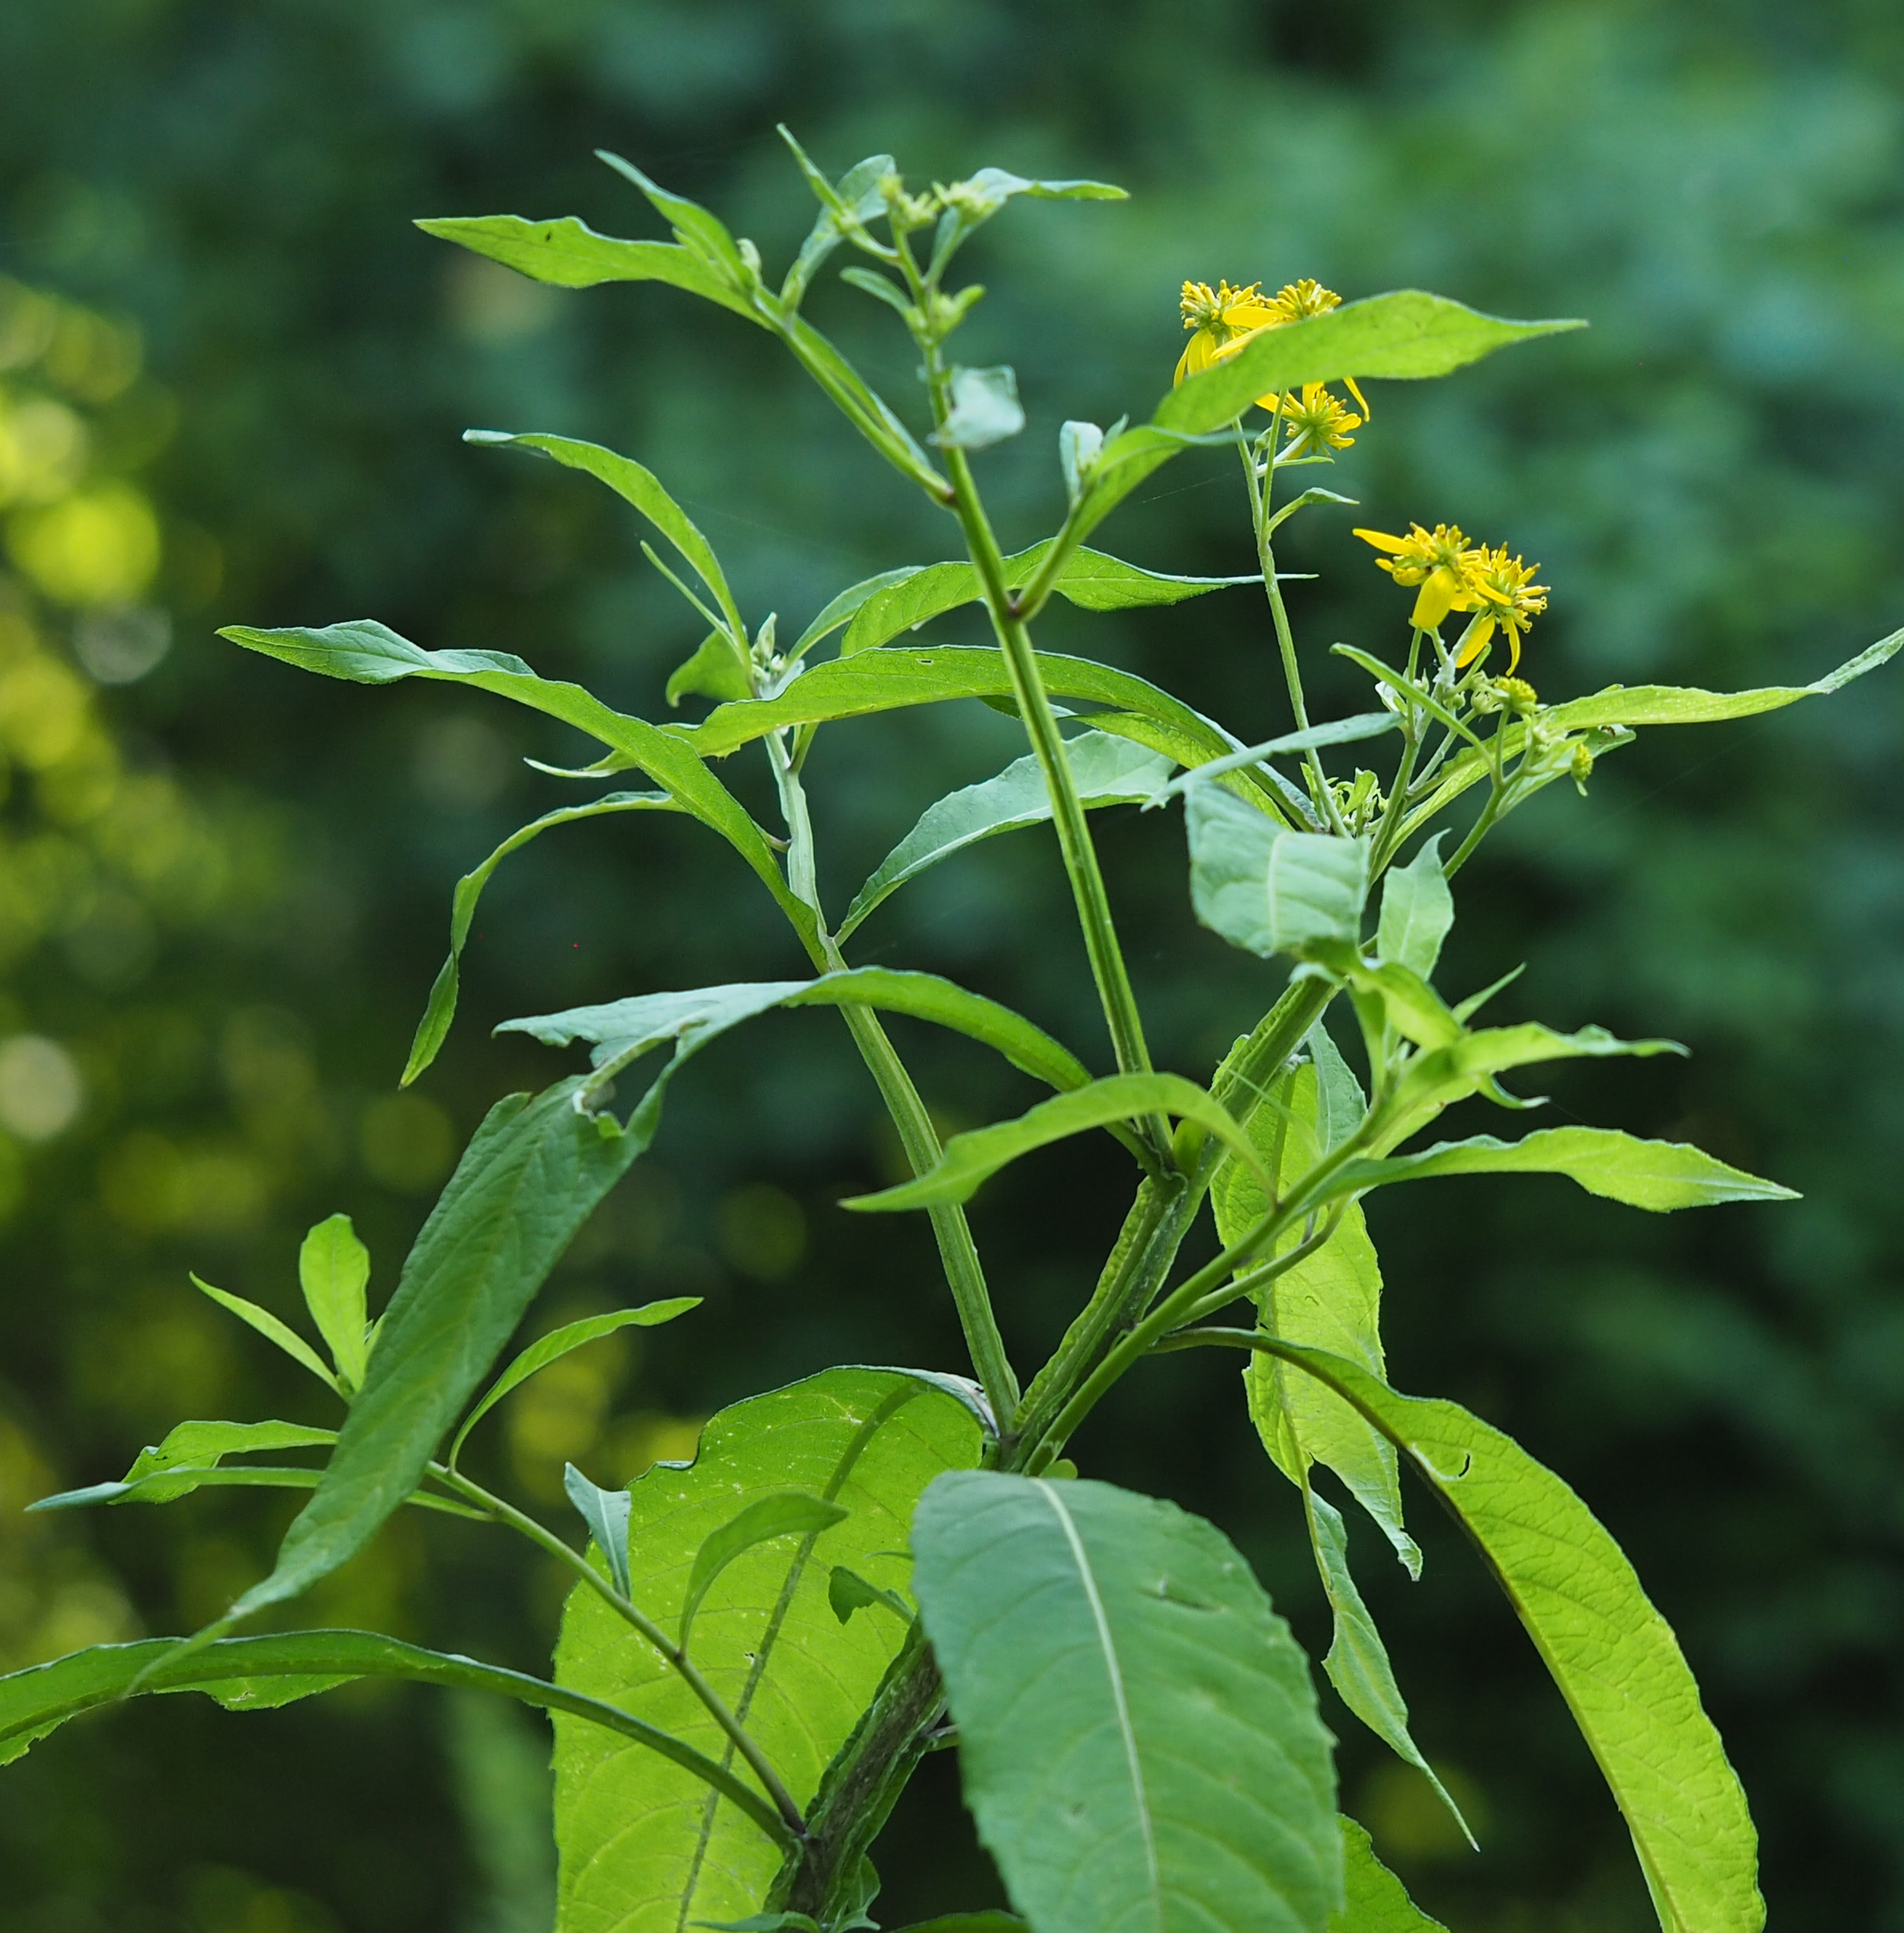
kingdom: Plantae
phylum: Tracheophyta
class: Magnoliopsida
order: Asterales
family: Asteraceae
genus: Verbesina
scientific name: Verbesina alternifolia
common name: Wingstem
